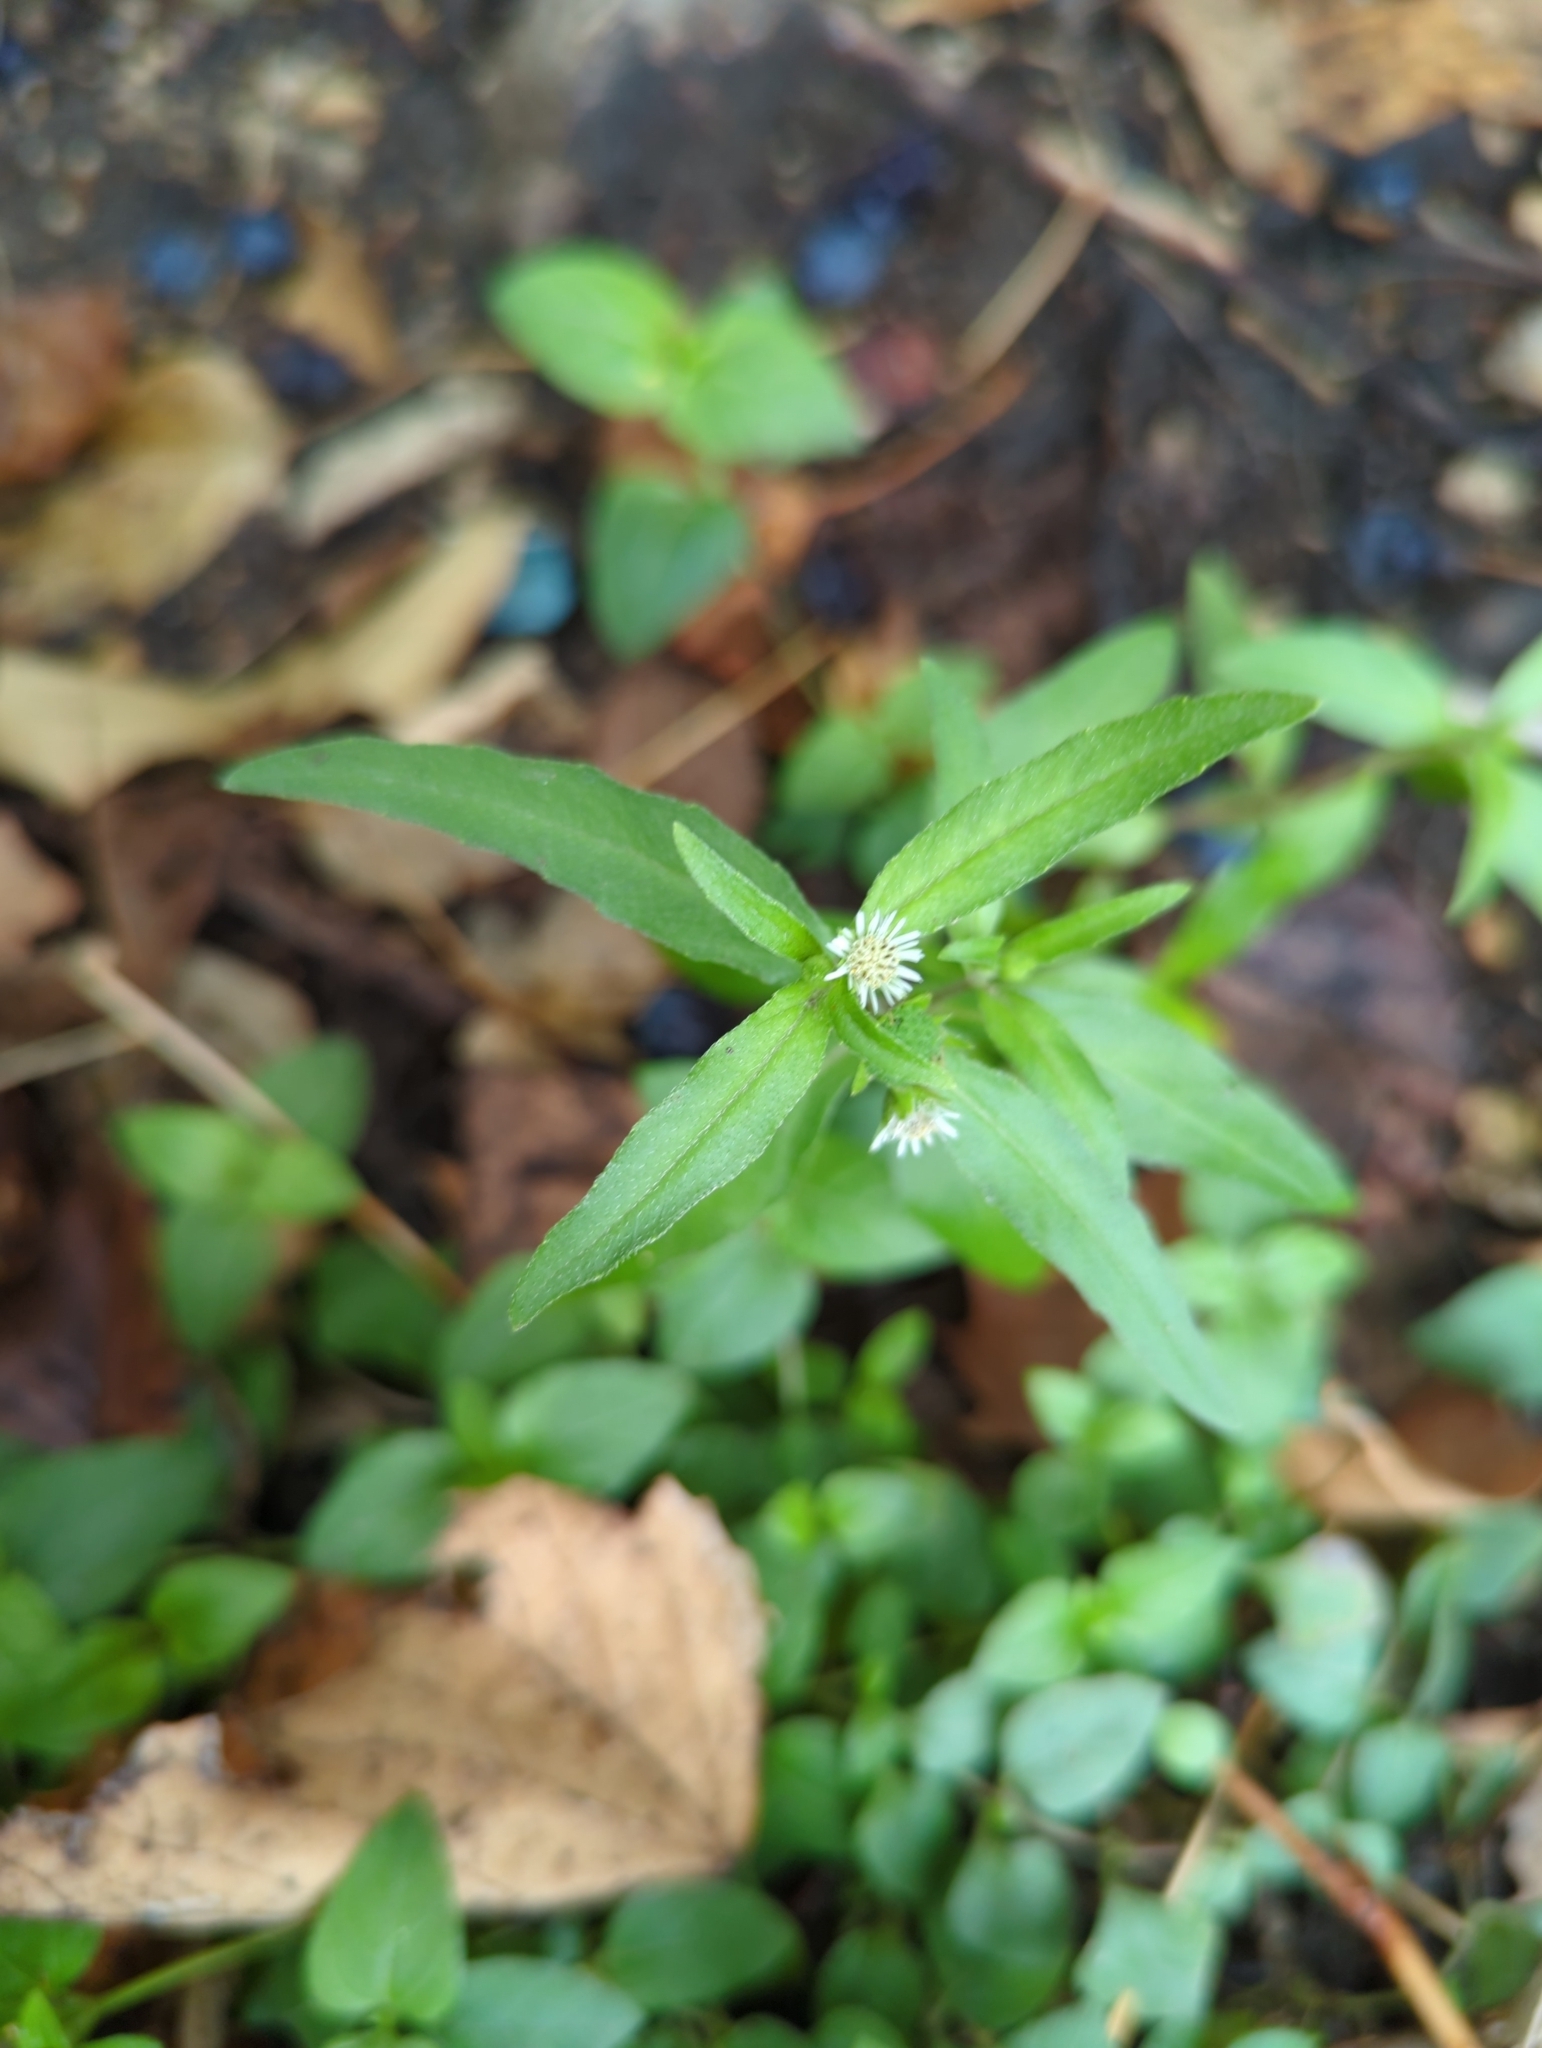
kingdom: Plantae
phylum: Tracheophyta
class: Magnoliopsida
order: Asterales
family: Asteraceae
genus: Eclipta
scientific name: Eclipta prostrata
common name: False daisy
